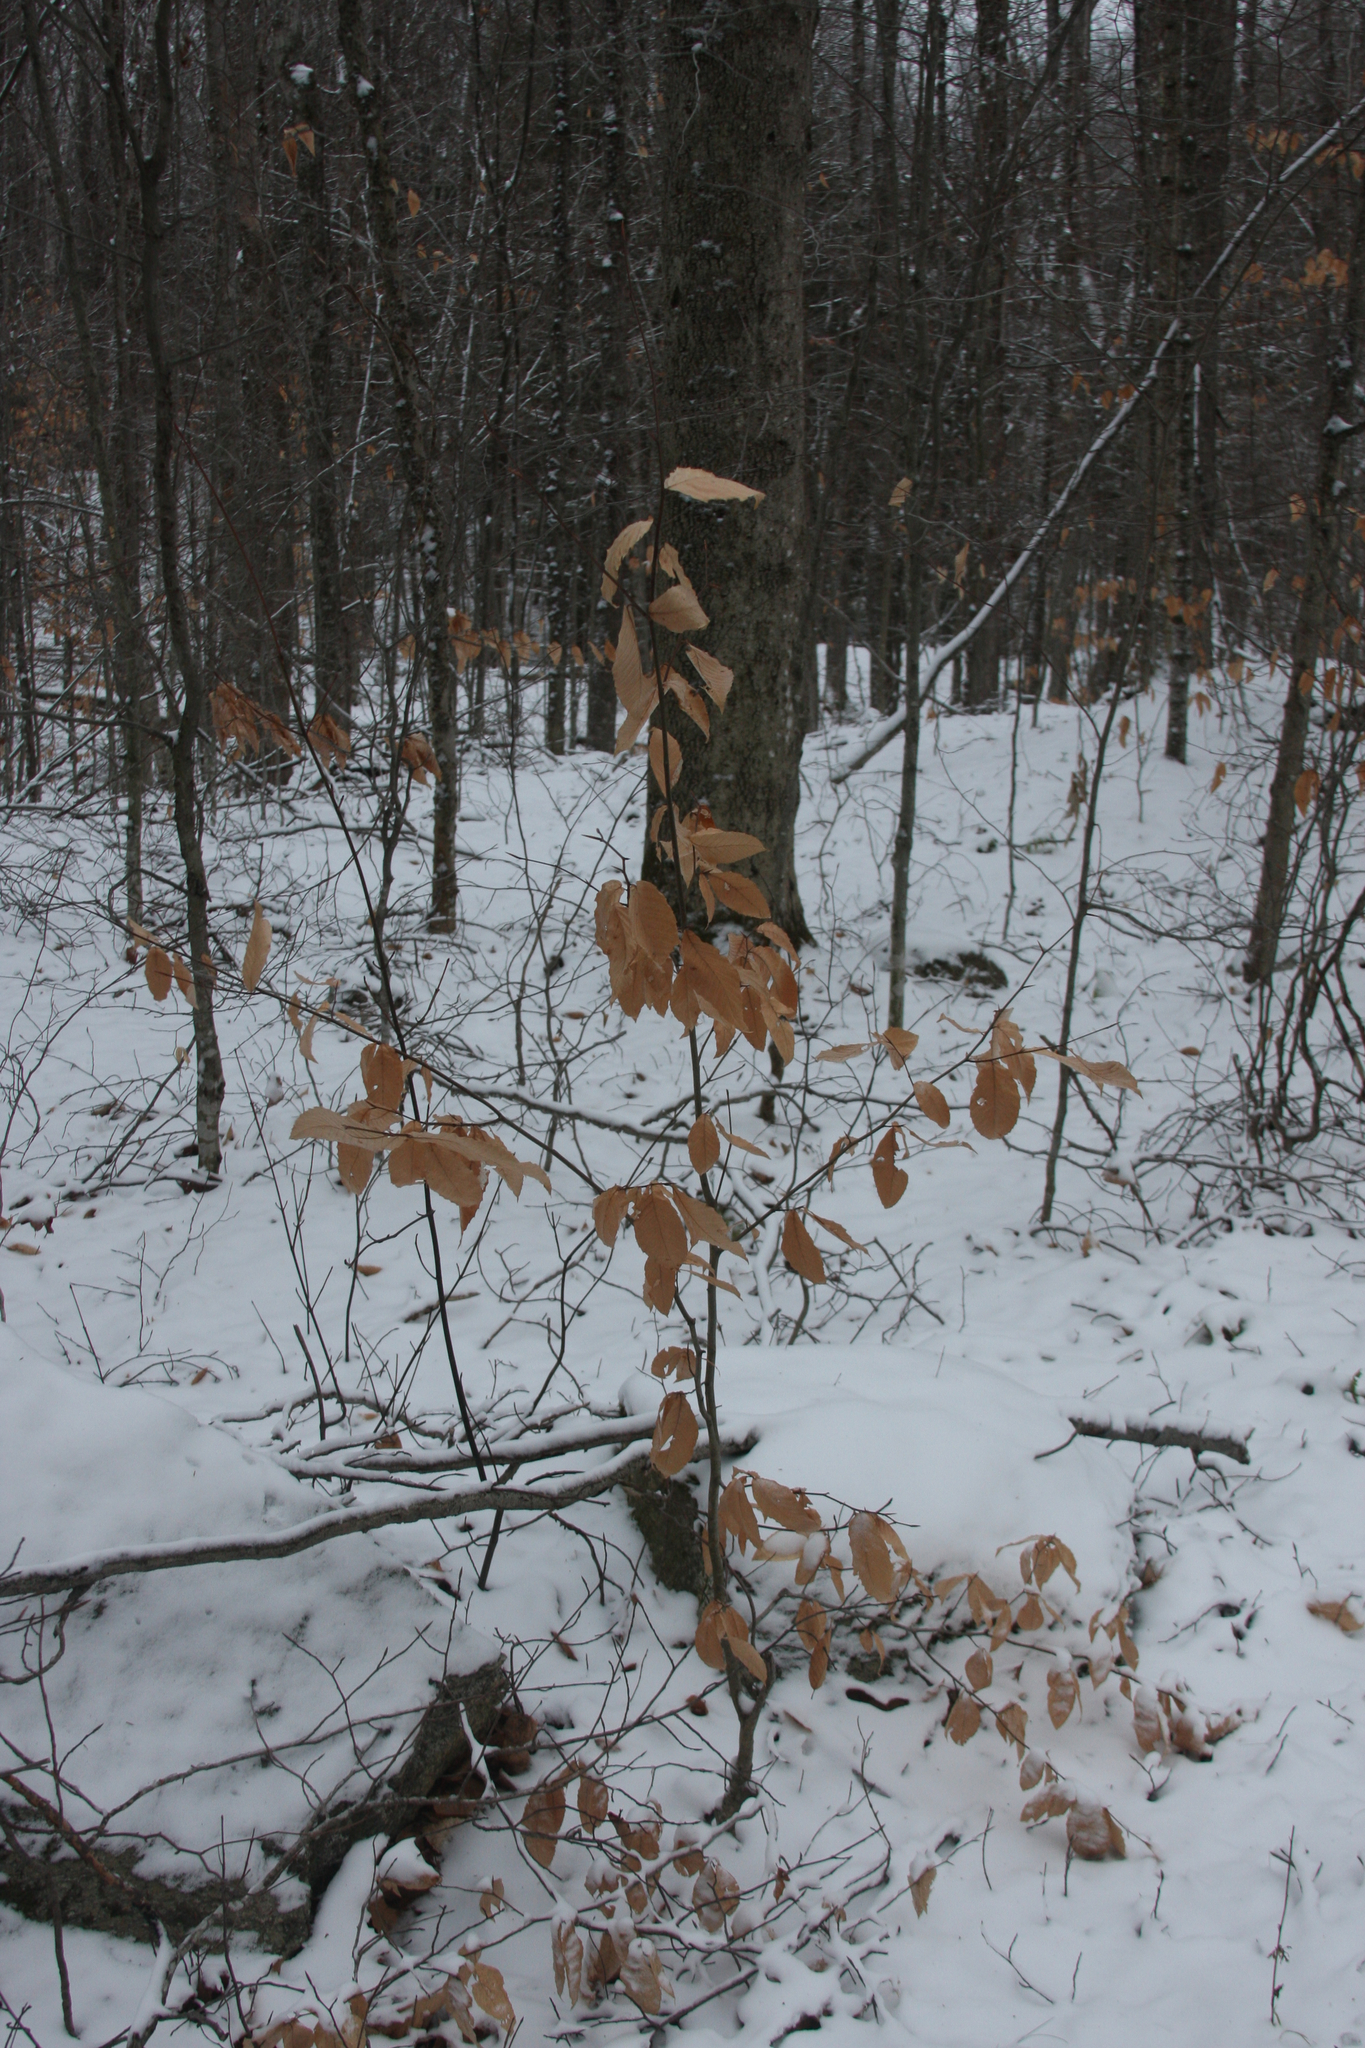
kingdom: Plantae
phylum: Tracheophyta
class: Magnoliopsida
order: Fagales
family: Fagaceae
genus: Fagus
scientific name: Fagus grandifolia
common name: American beech
